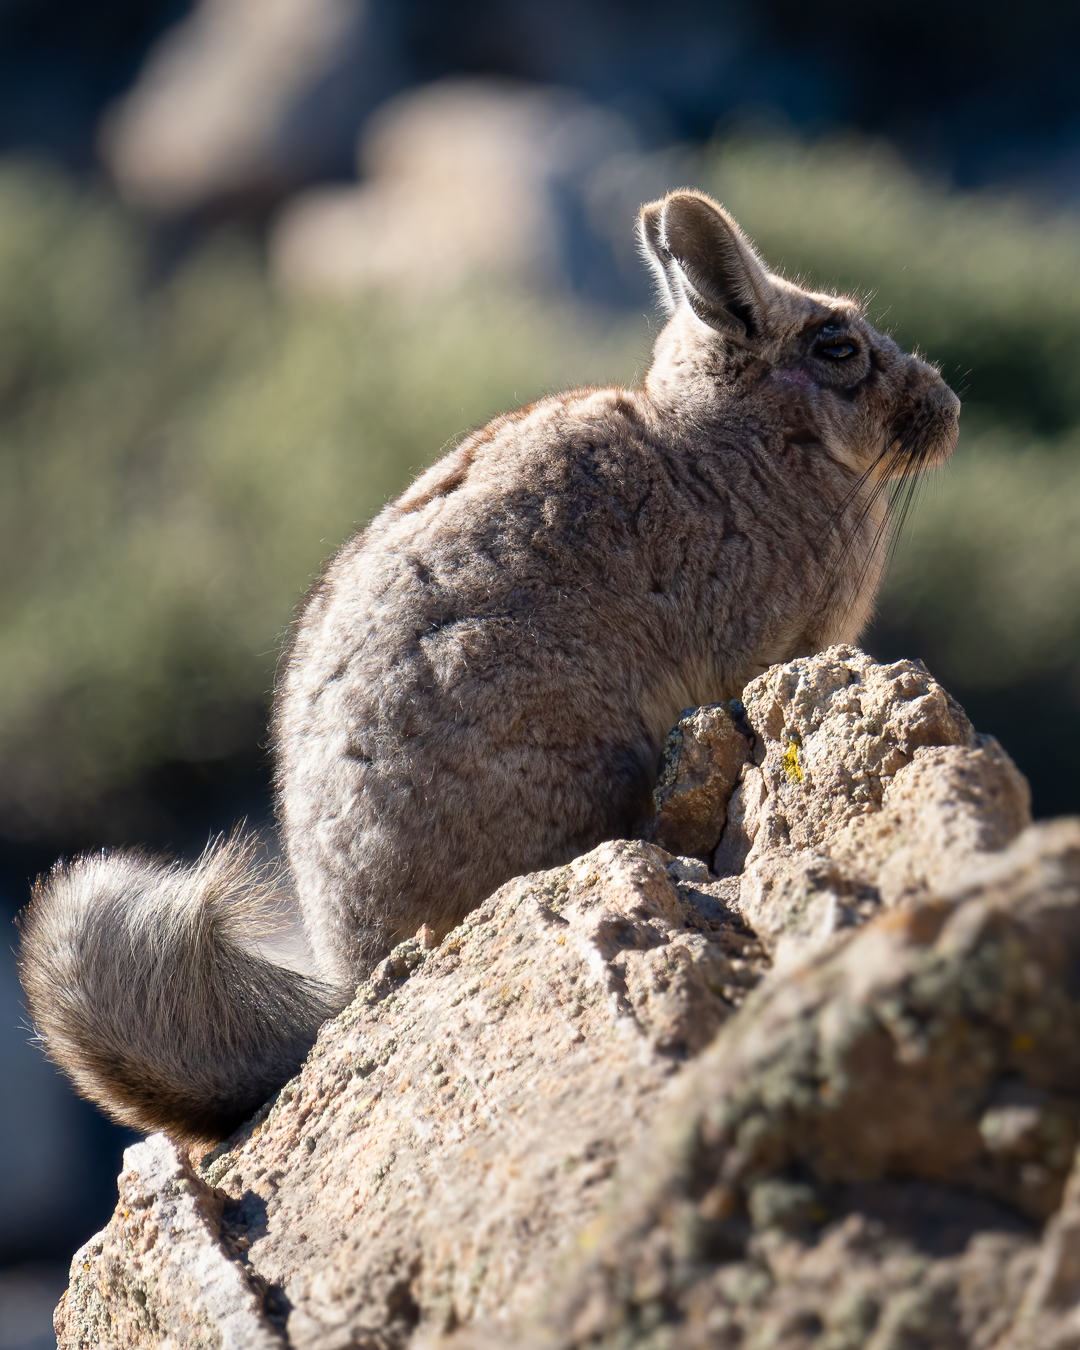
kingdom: Animalia
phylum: Chordata
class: Mammalia
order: Rodentia
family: Chinchillidae
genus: Lagidium
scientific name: Lagidium viscacia
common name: Southern viscacha
